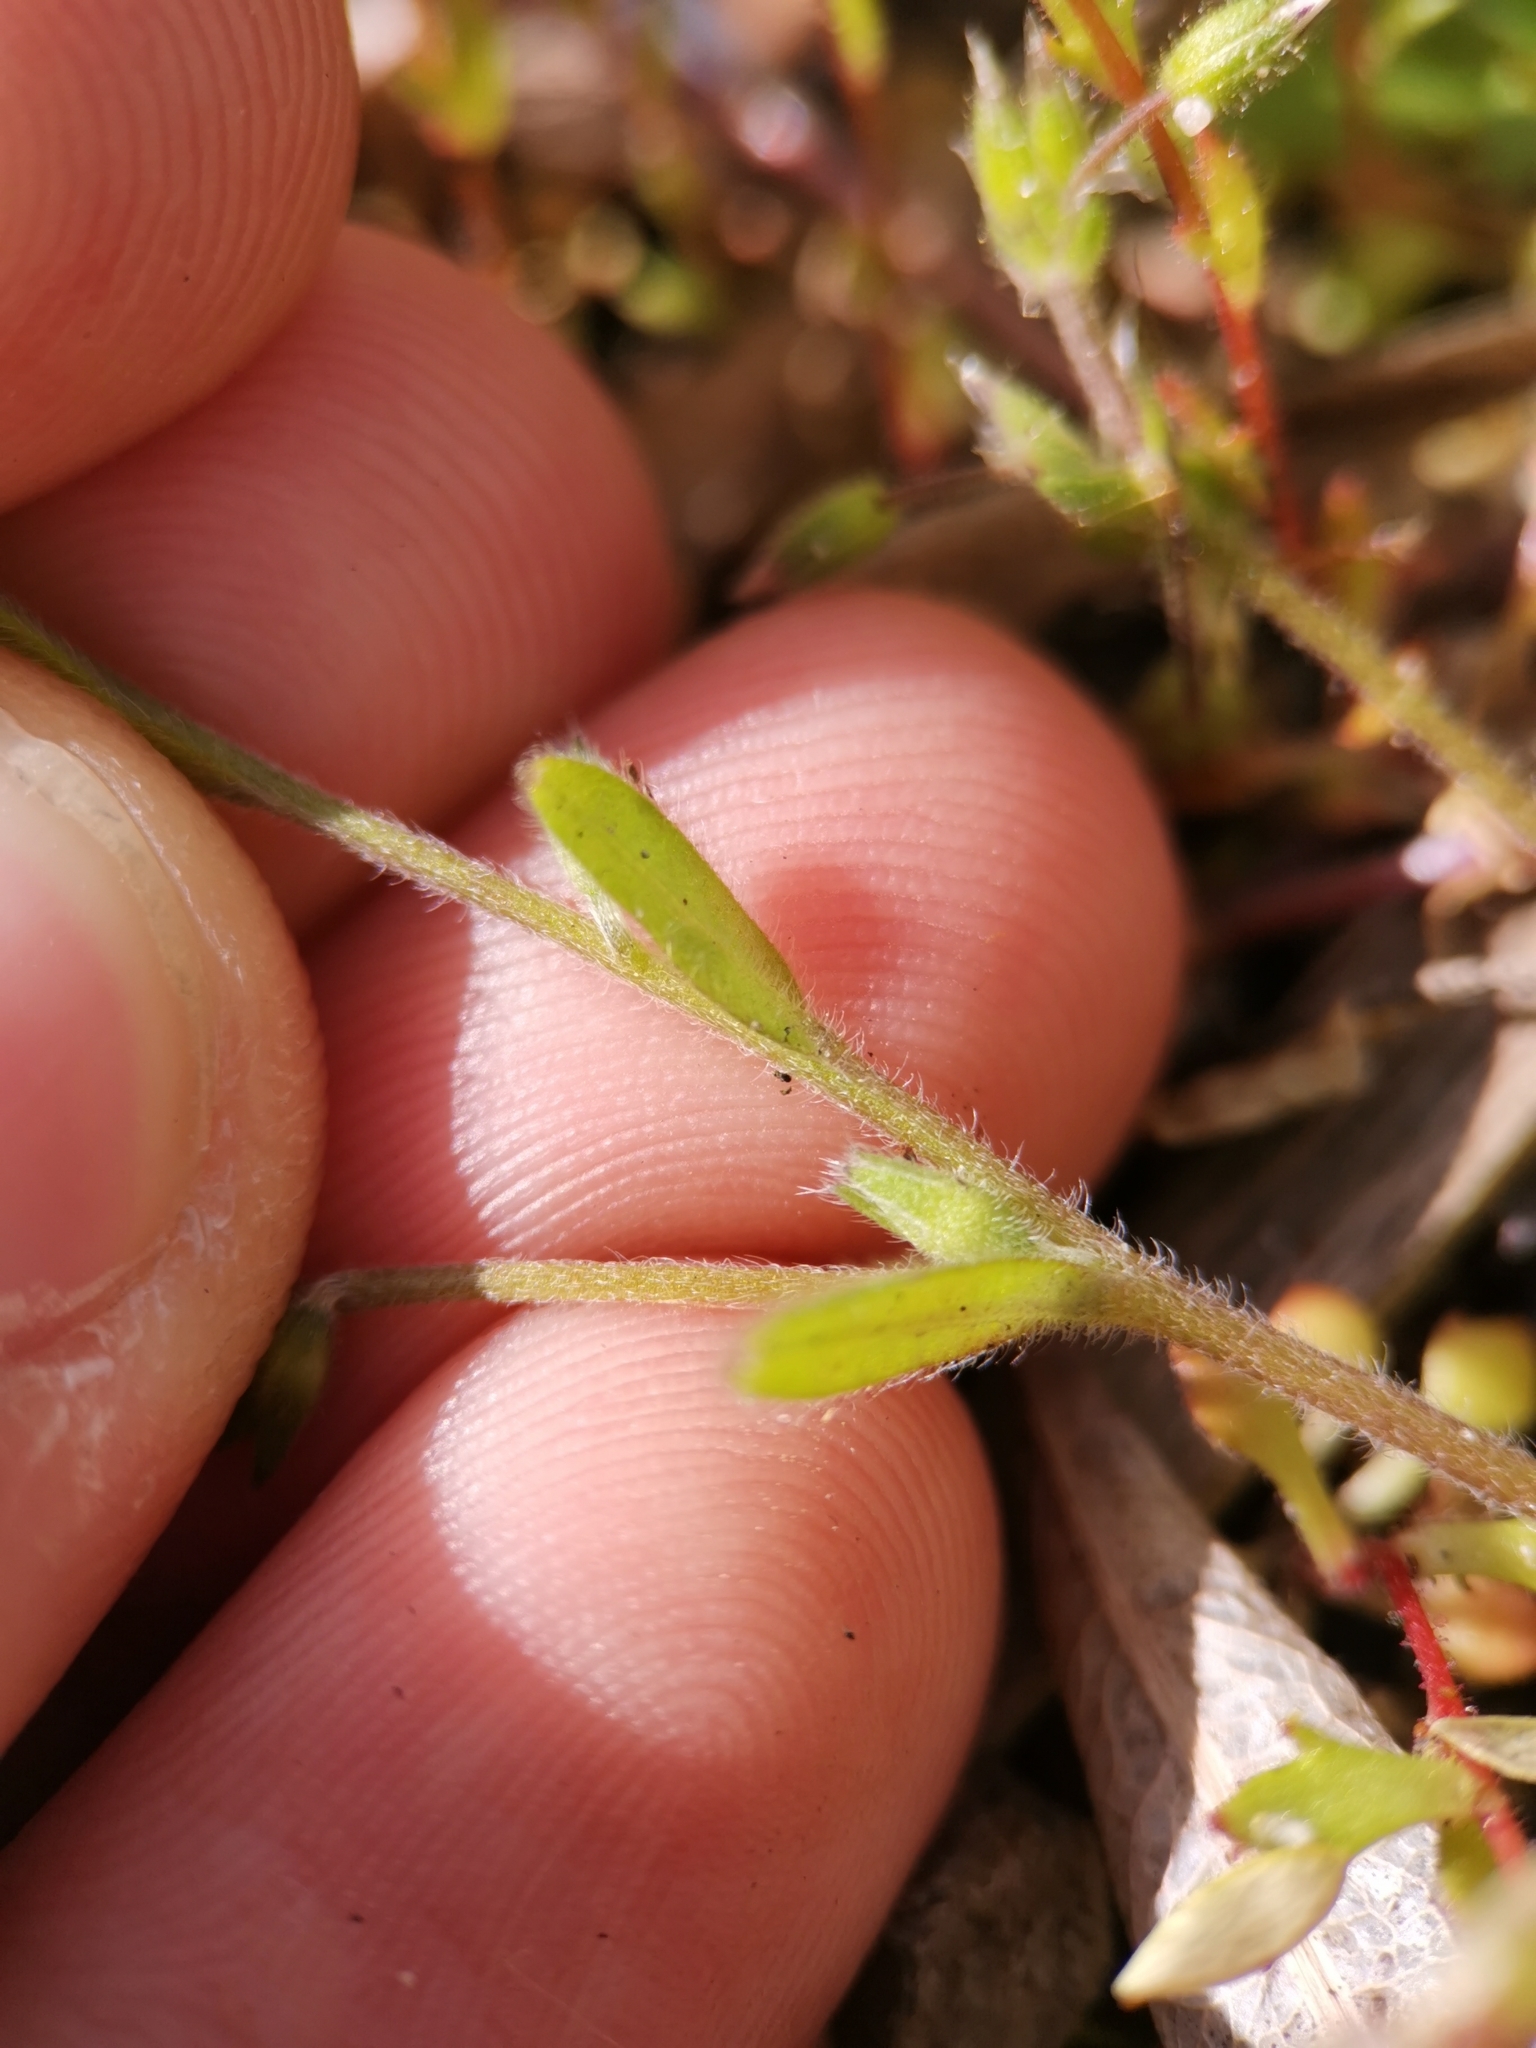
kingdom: Plantae
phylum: Tracheophyta
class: Magnoliopsida
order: Boraginales
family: Boraginaceae
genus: Myosotis
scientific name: Myosotis stricta
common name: Strict forget-me-not
